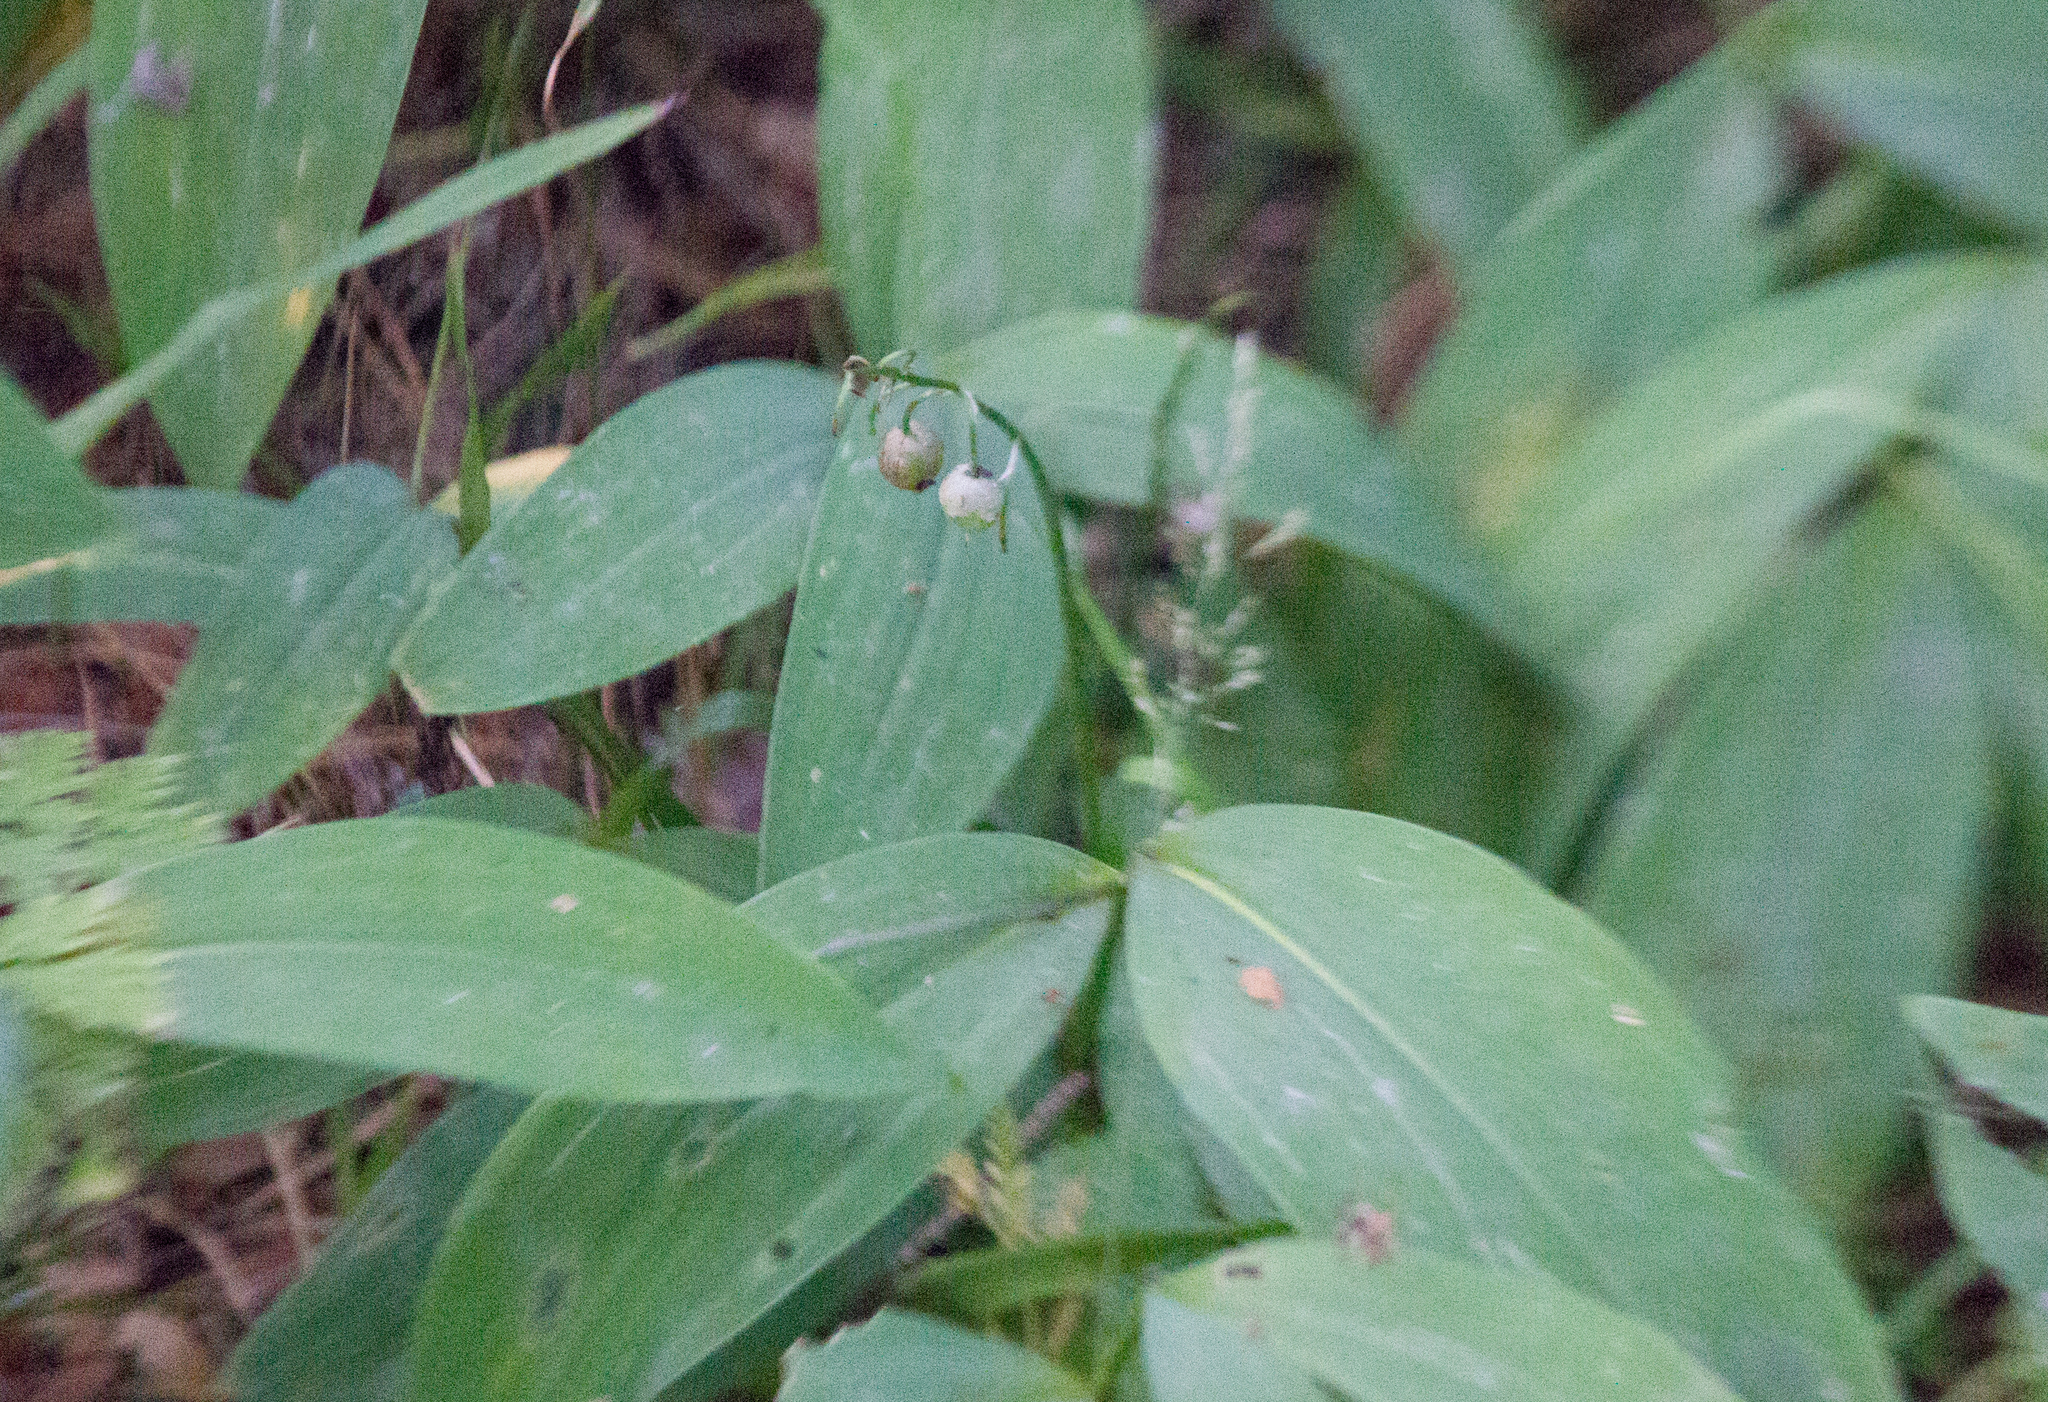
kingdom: Plantae
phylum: Tracheophyta
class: Liliopsida
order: Asparagales
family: Asparagaceae
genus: Convallaria
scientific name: Convallaria majalis
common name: Lily-of-the-valley
